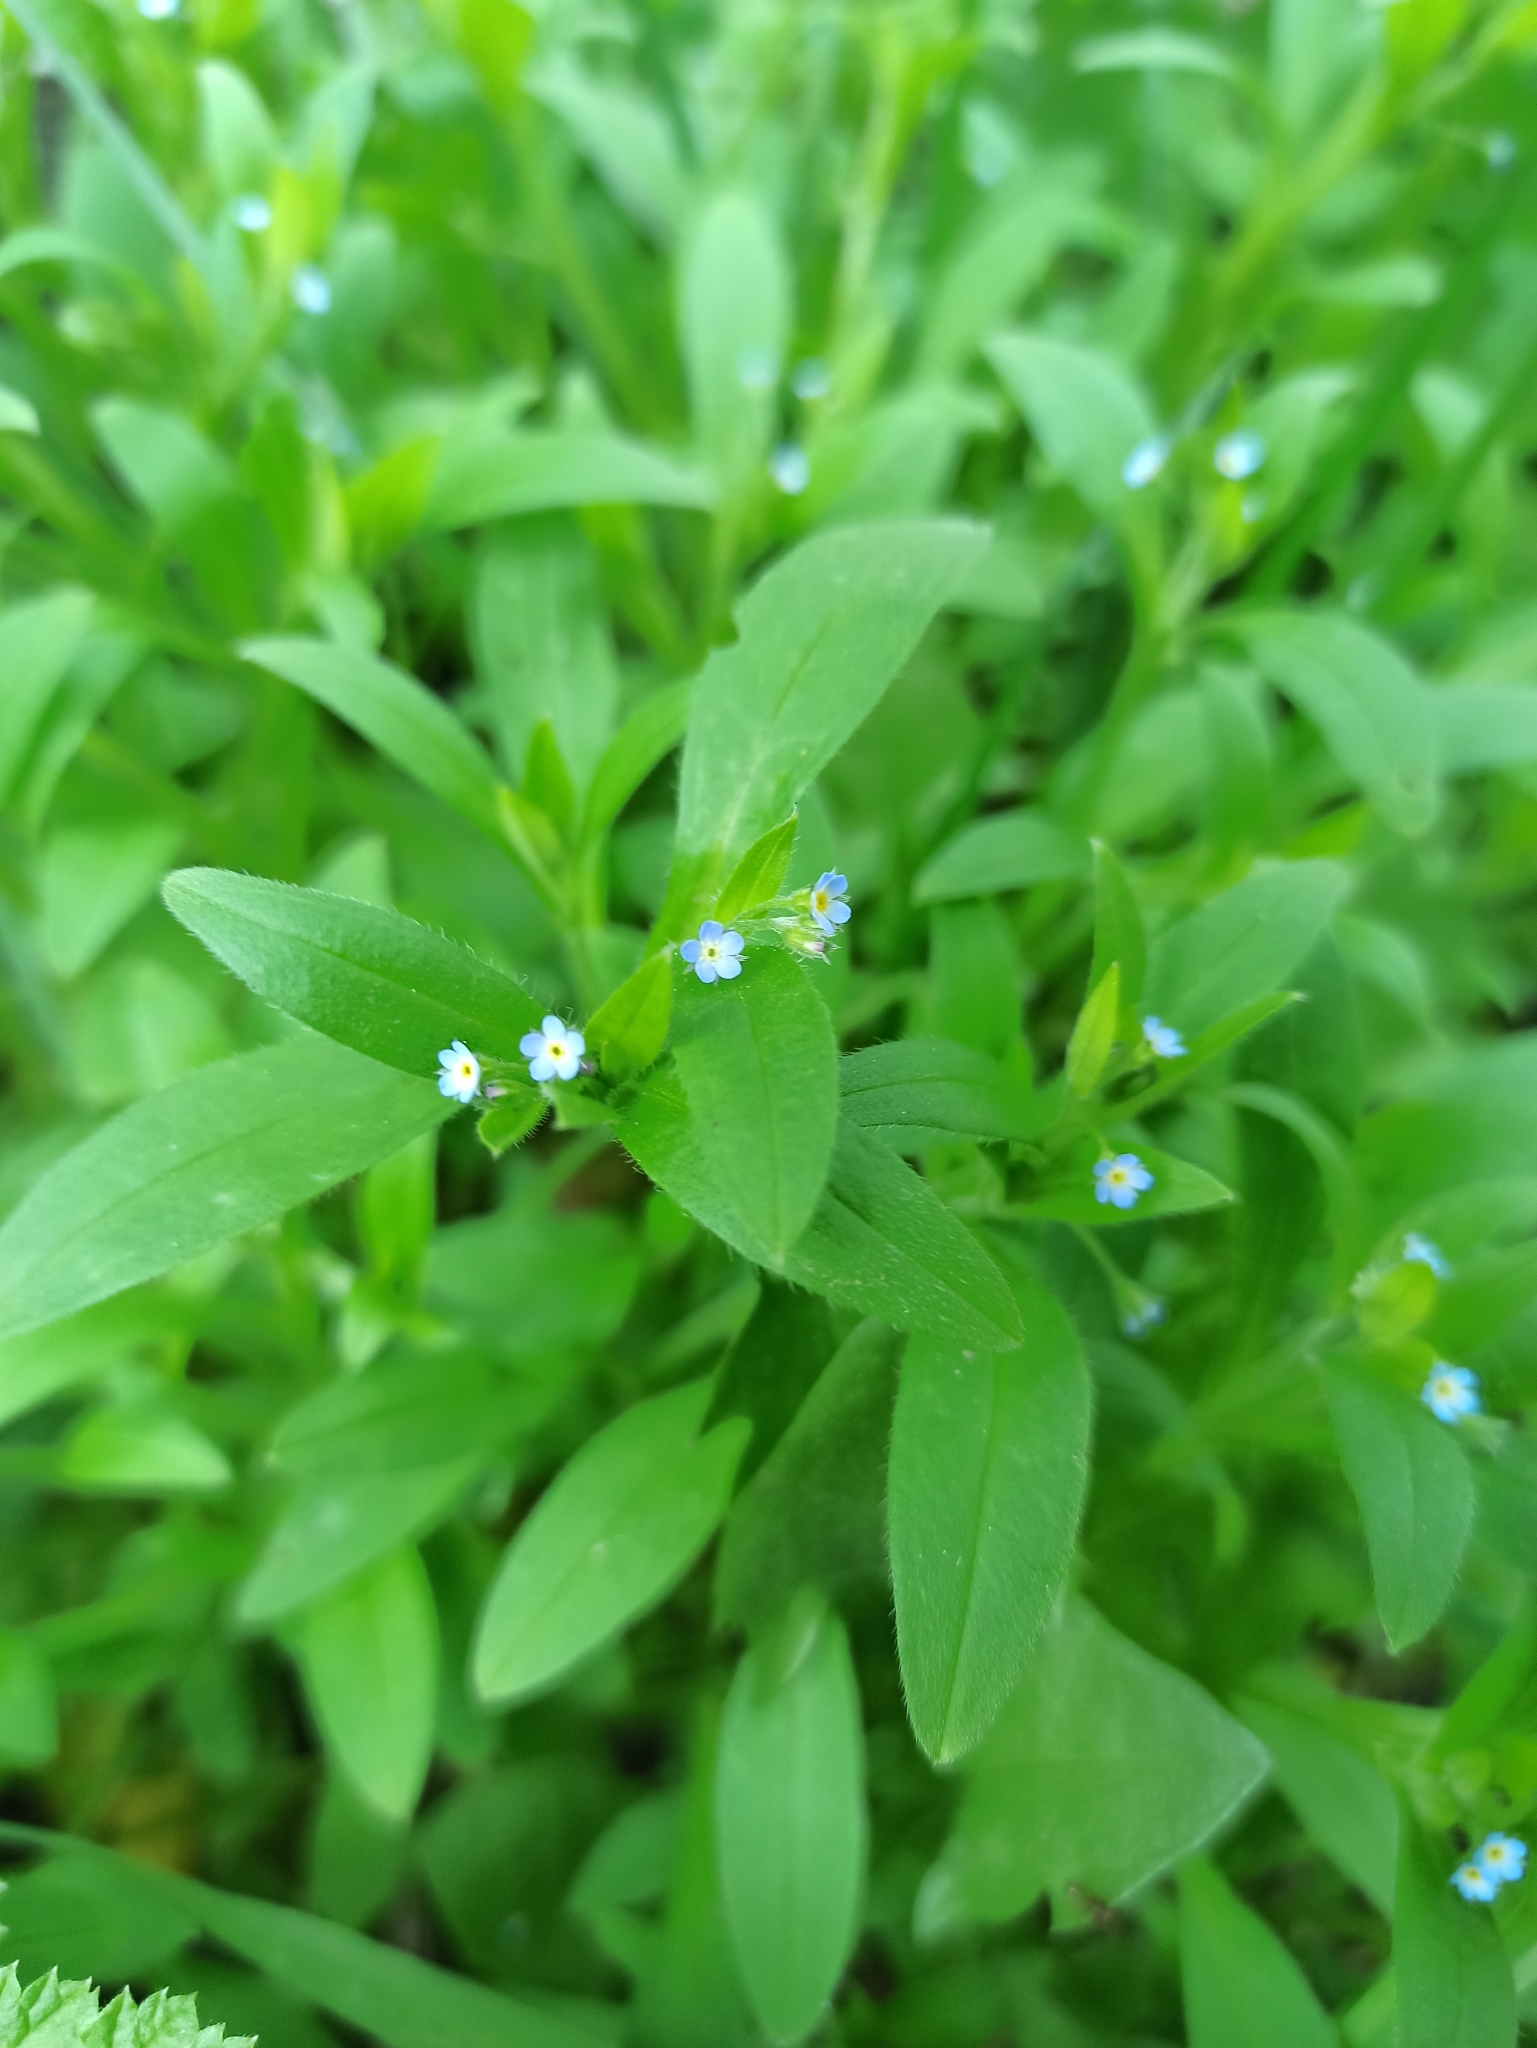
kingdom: Plantae
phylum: Tracheophyta
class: Magnoliopsida
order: Boraginales
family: Boraginaceae
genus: Myosotis
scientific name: Myosotis sparsiflora
